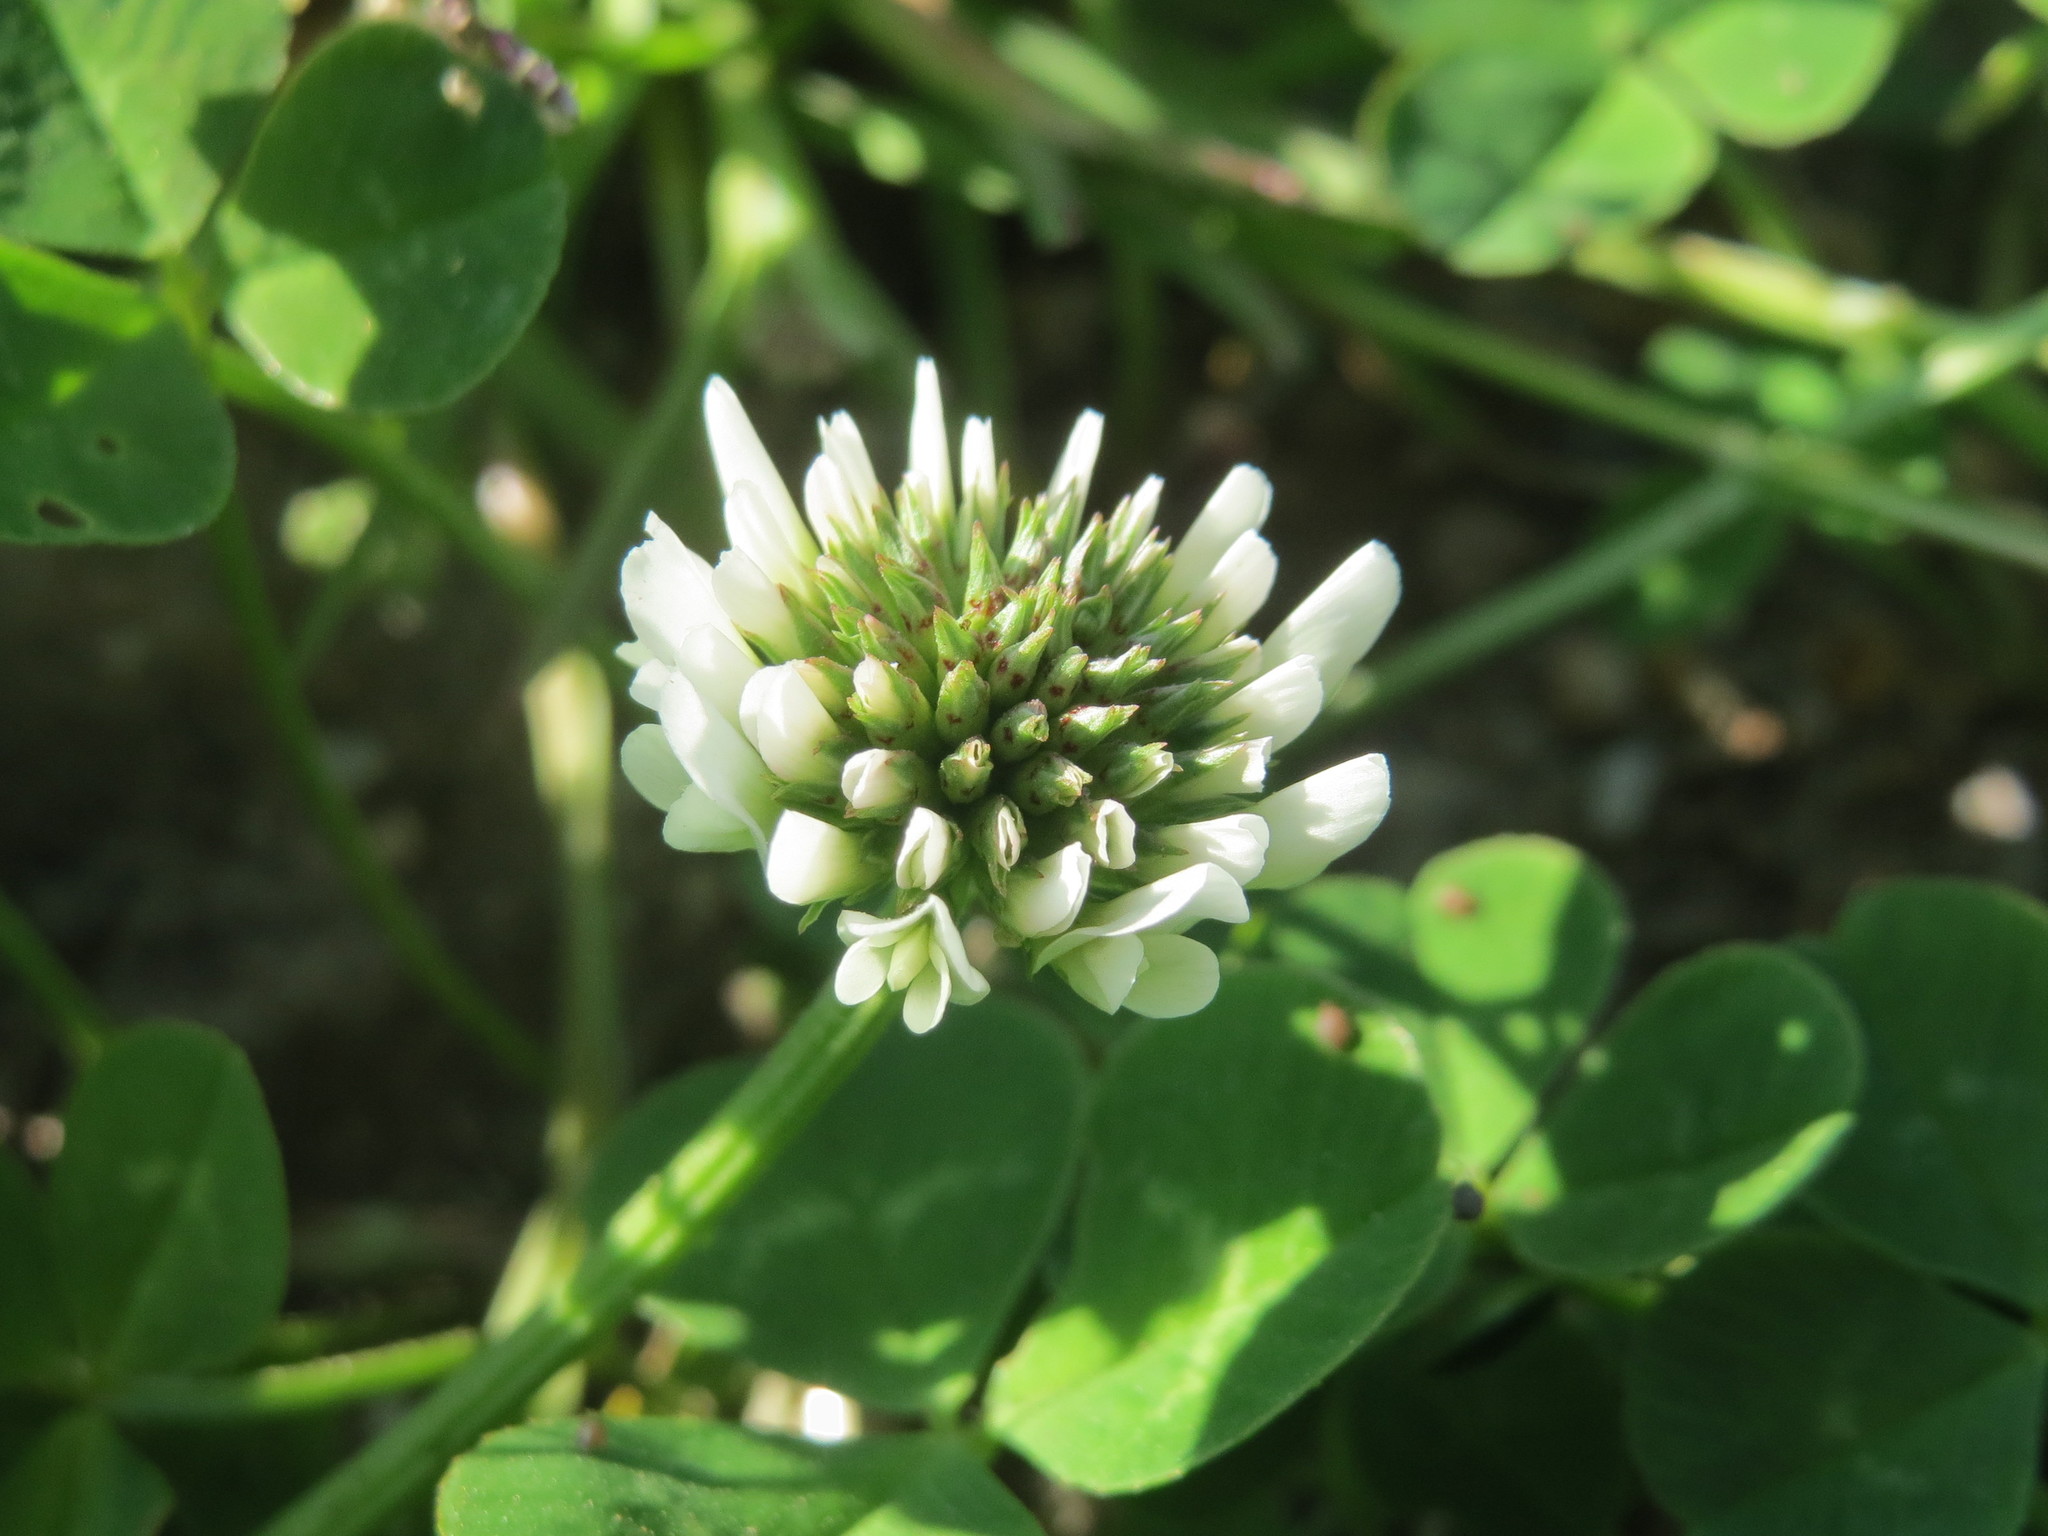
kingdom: Plantae
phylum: Tracheophyta
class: Magnoliopsida
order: Fabales
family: Fabaceae
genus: Trifolium
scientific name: Trifolium repens
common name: White clover
